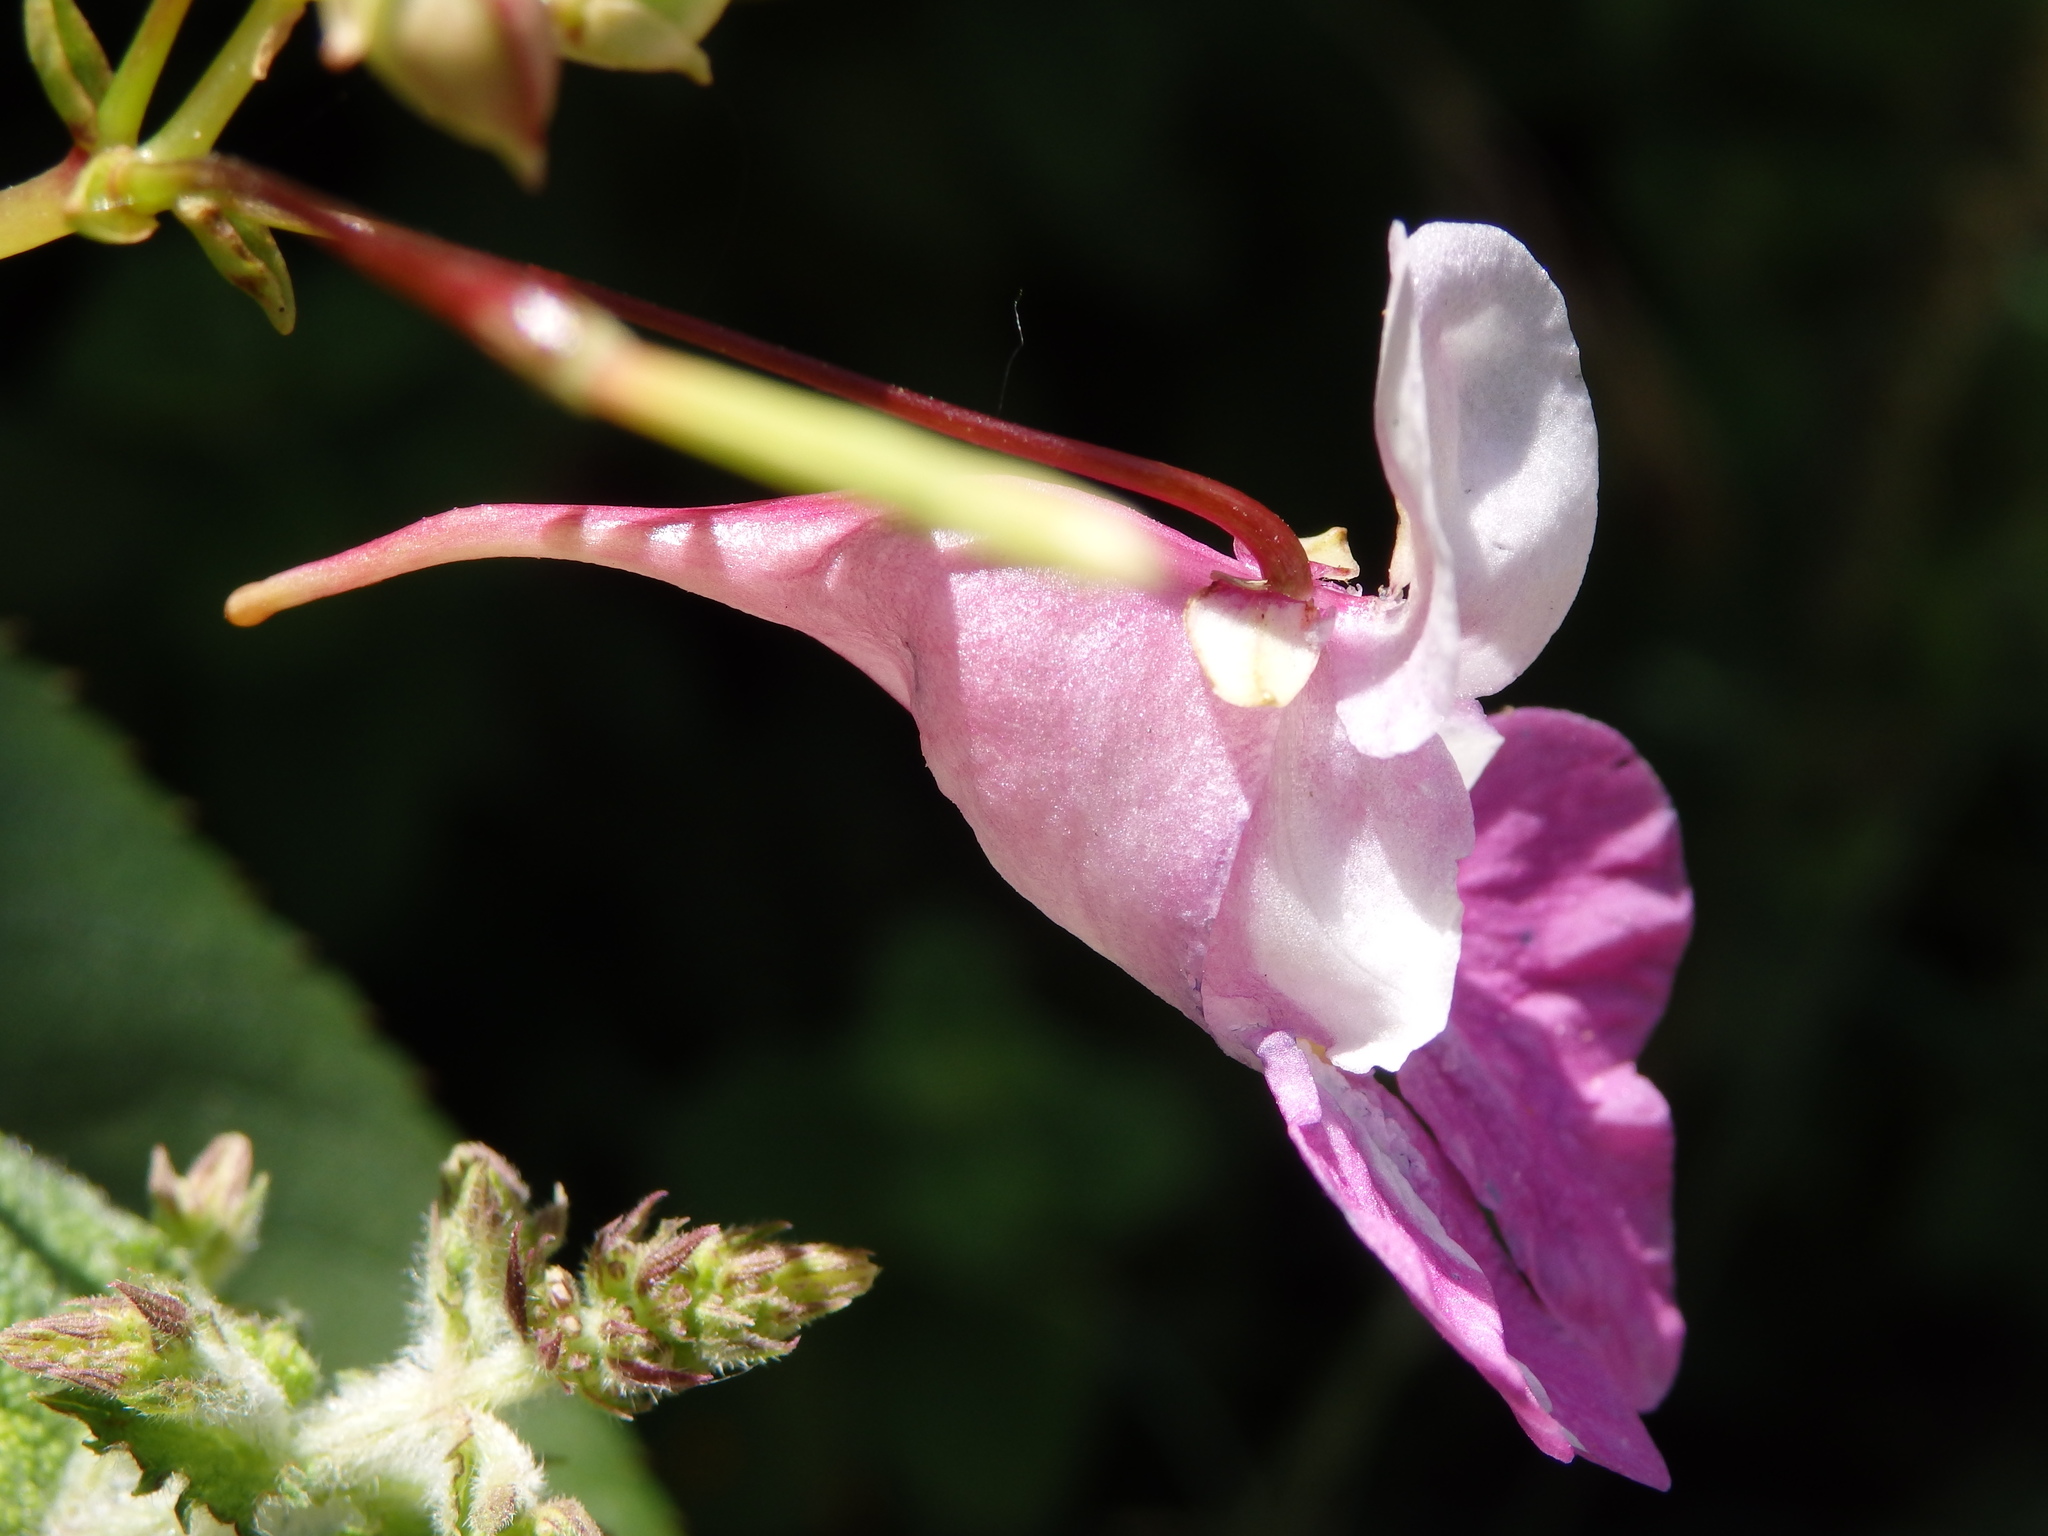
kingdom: Plantae
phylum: Tracheophyta
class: Magnoliopsida
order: Ericales
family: Balsaminaceae
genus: Impatiens
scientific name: Impatiens balfourii
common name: Balfour's touch-me-not
